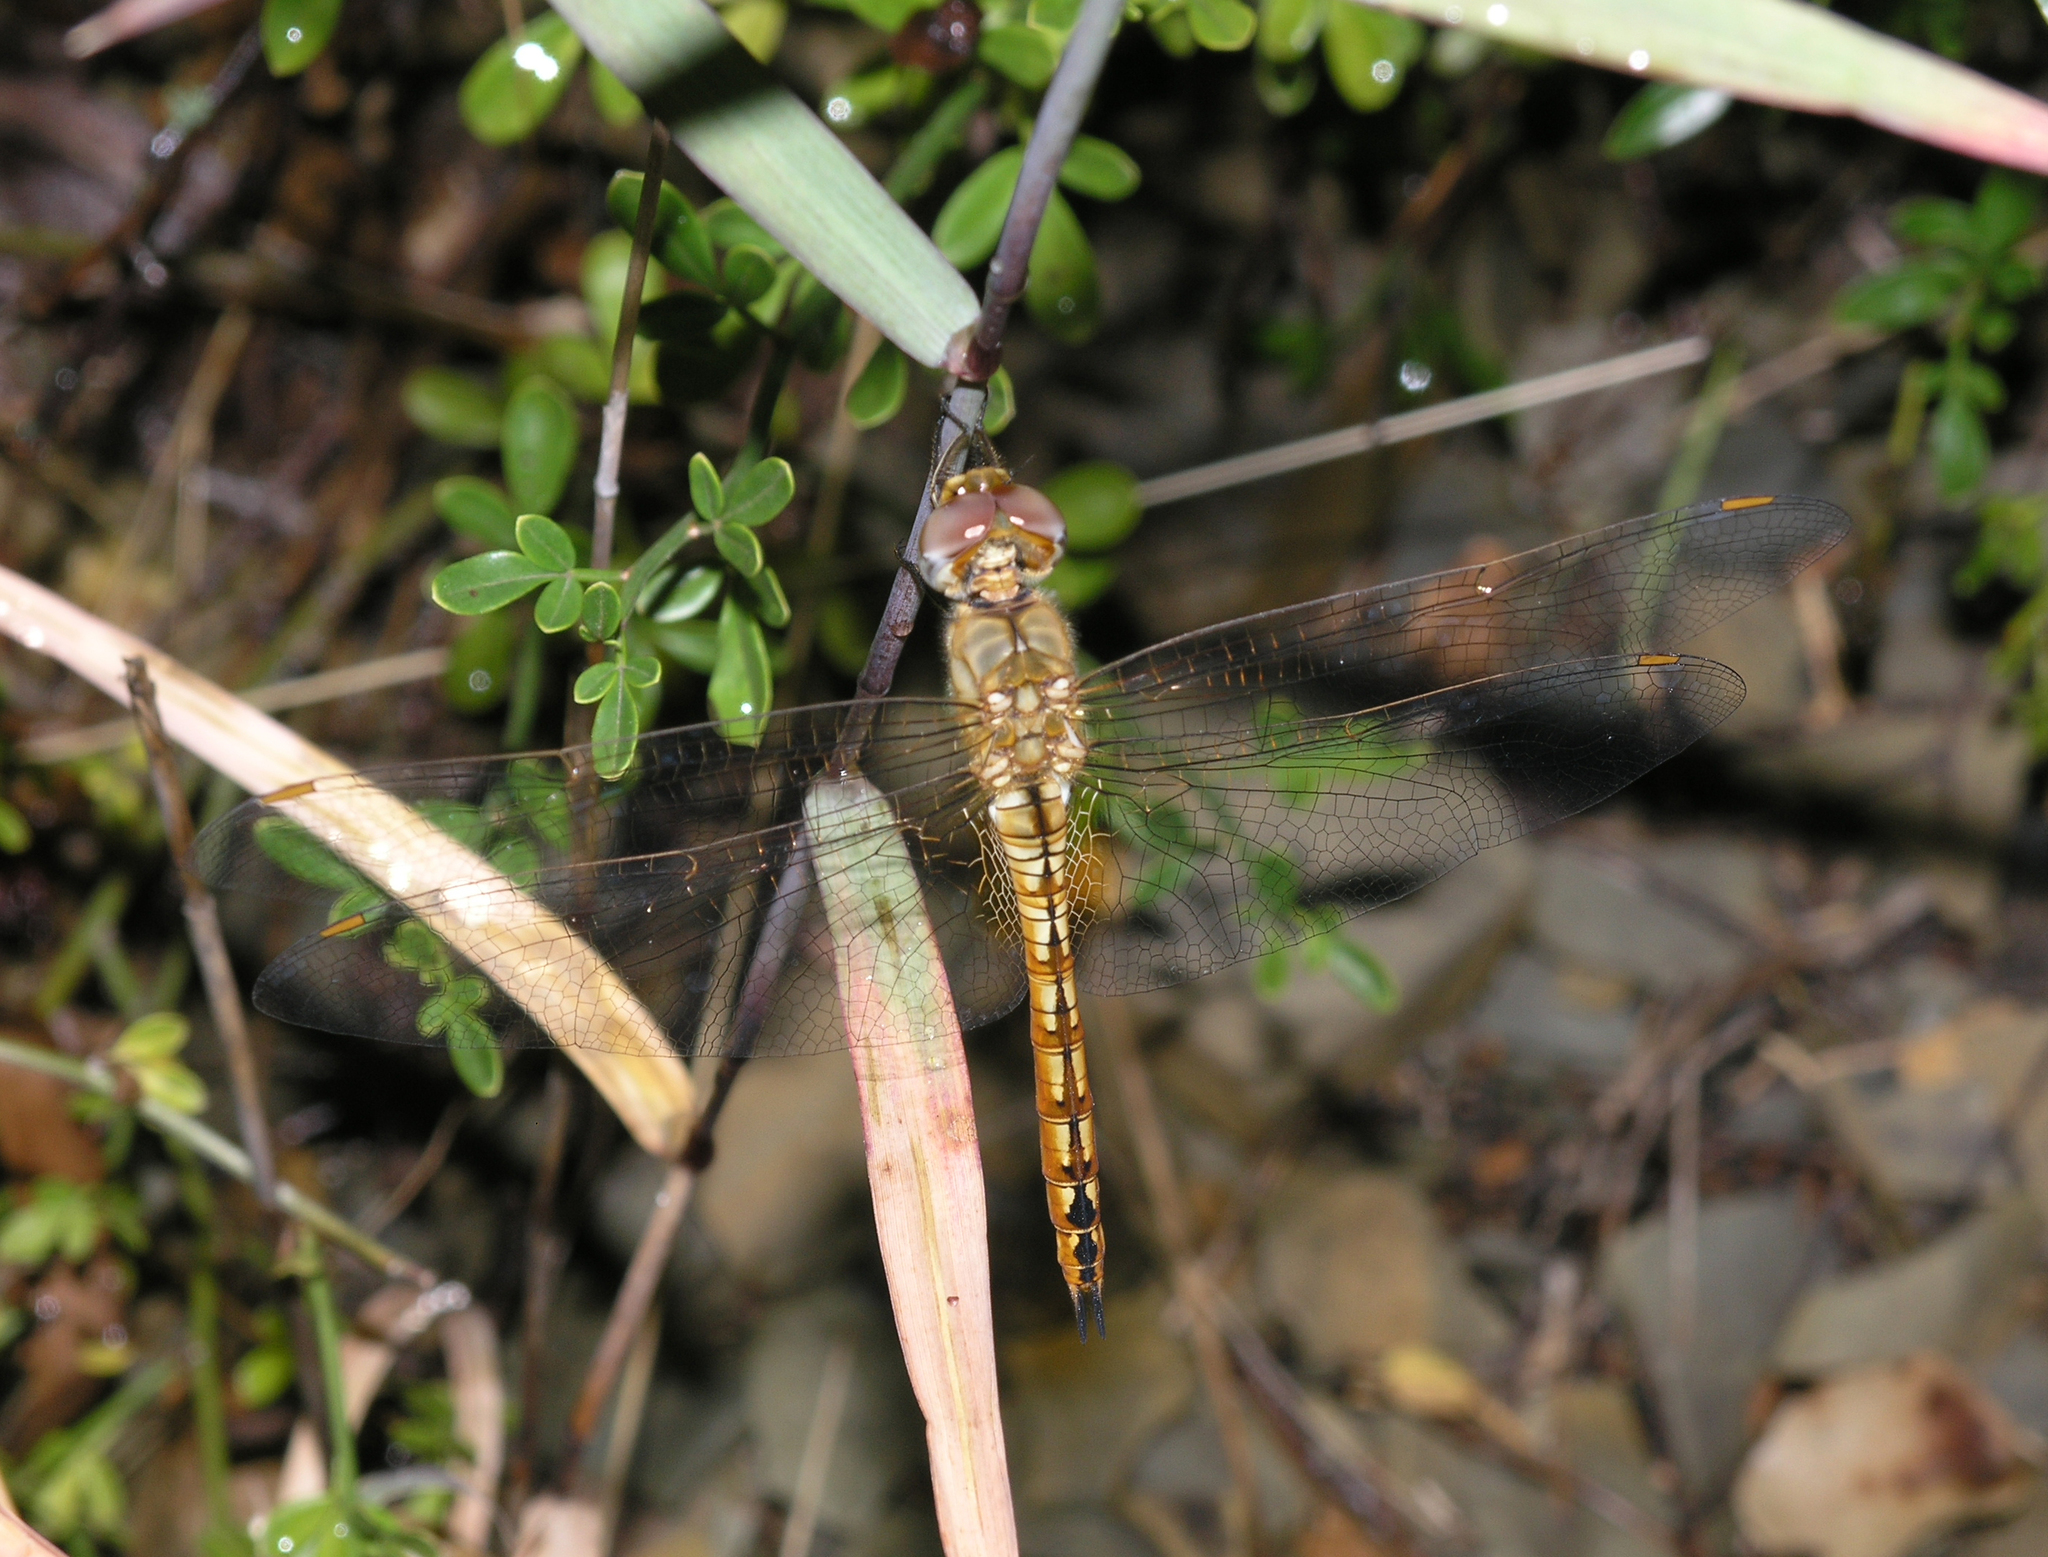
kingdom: Animalia
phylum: Arthropoda
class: Insecta
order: Odonata
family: Libellulidae
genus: Pantala
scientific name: Pantala flavescens
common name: Wandering glider
